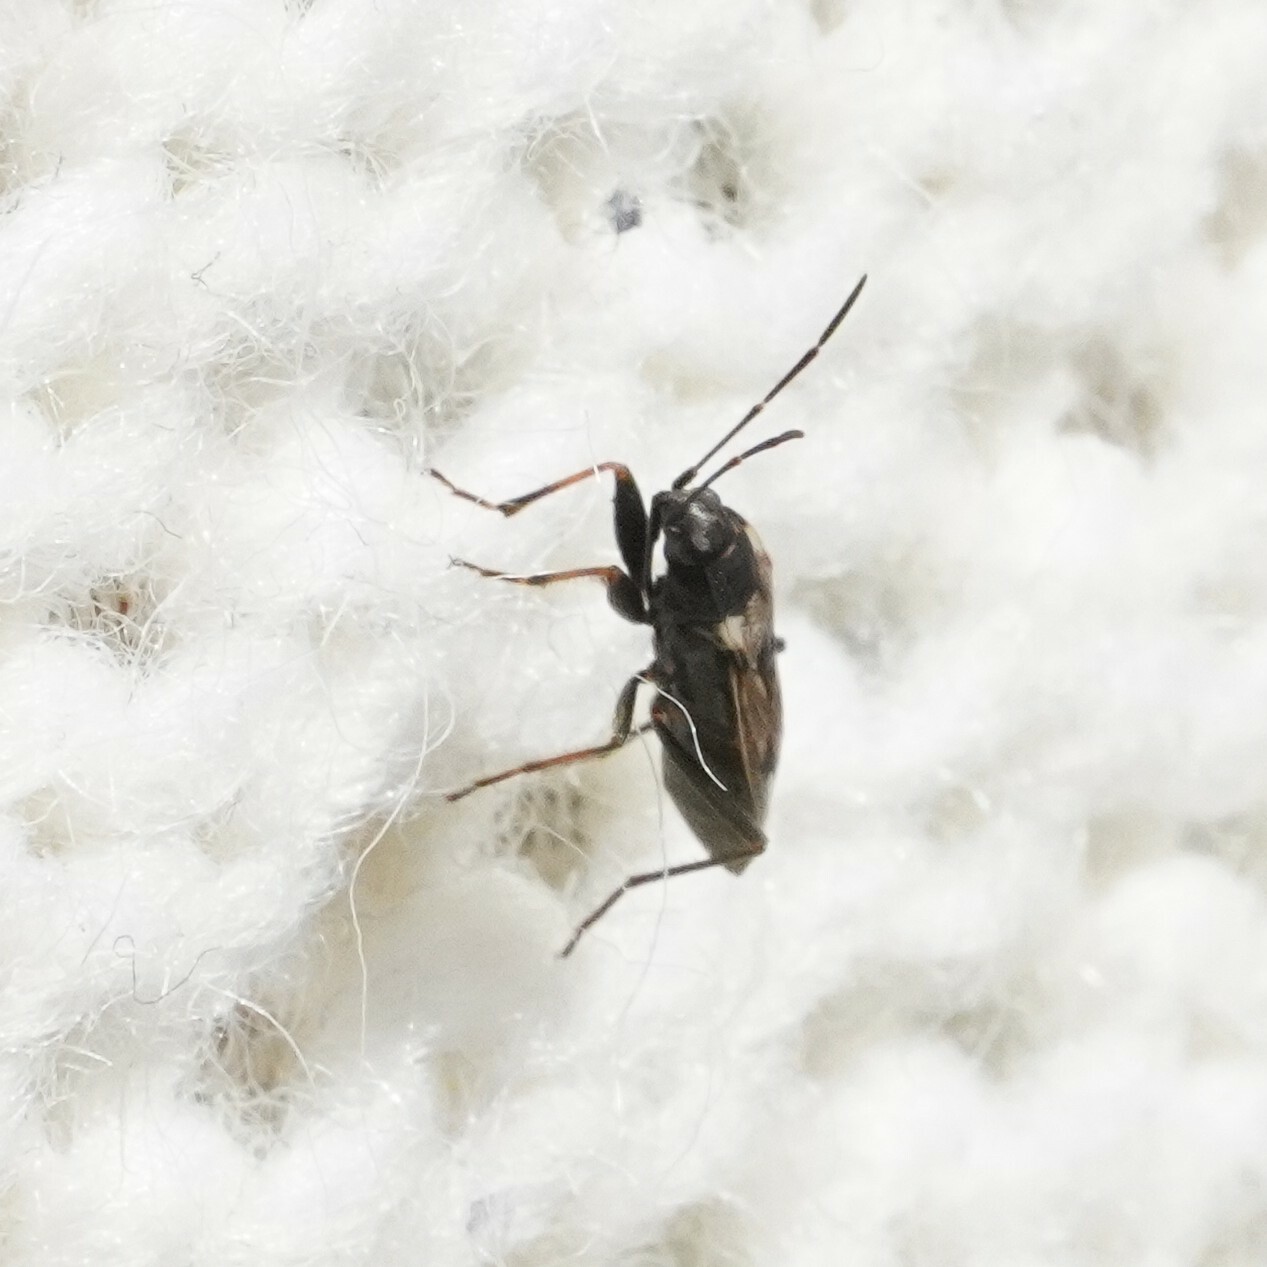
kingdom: Animalia
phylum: Arthropoda
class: Insecta
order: Hemiptera
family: Rhyparochromidae
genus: Rhyparochromus
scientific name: Rhyparochromus vulgaris
